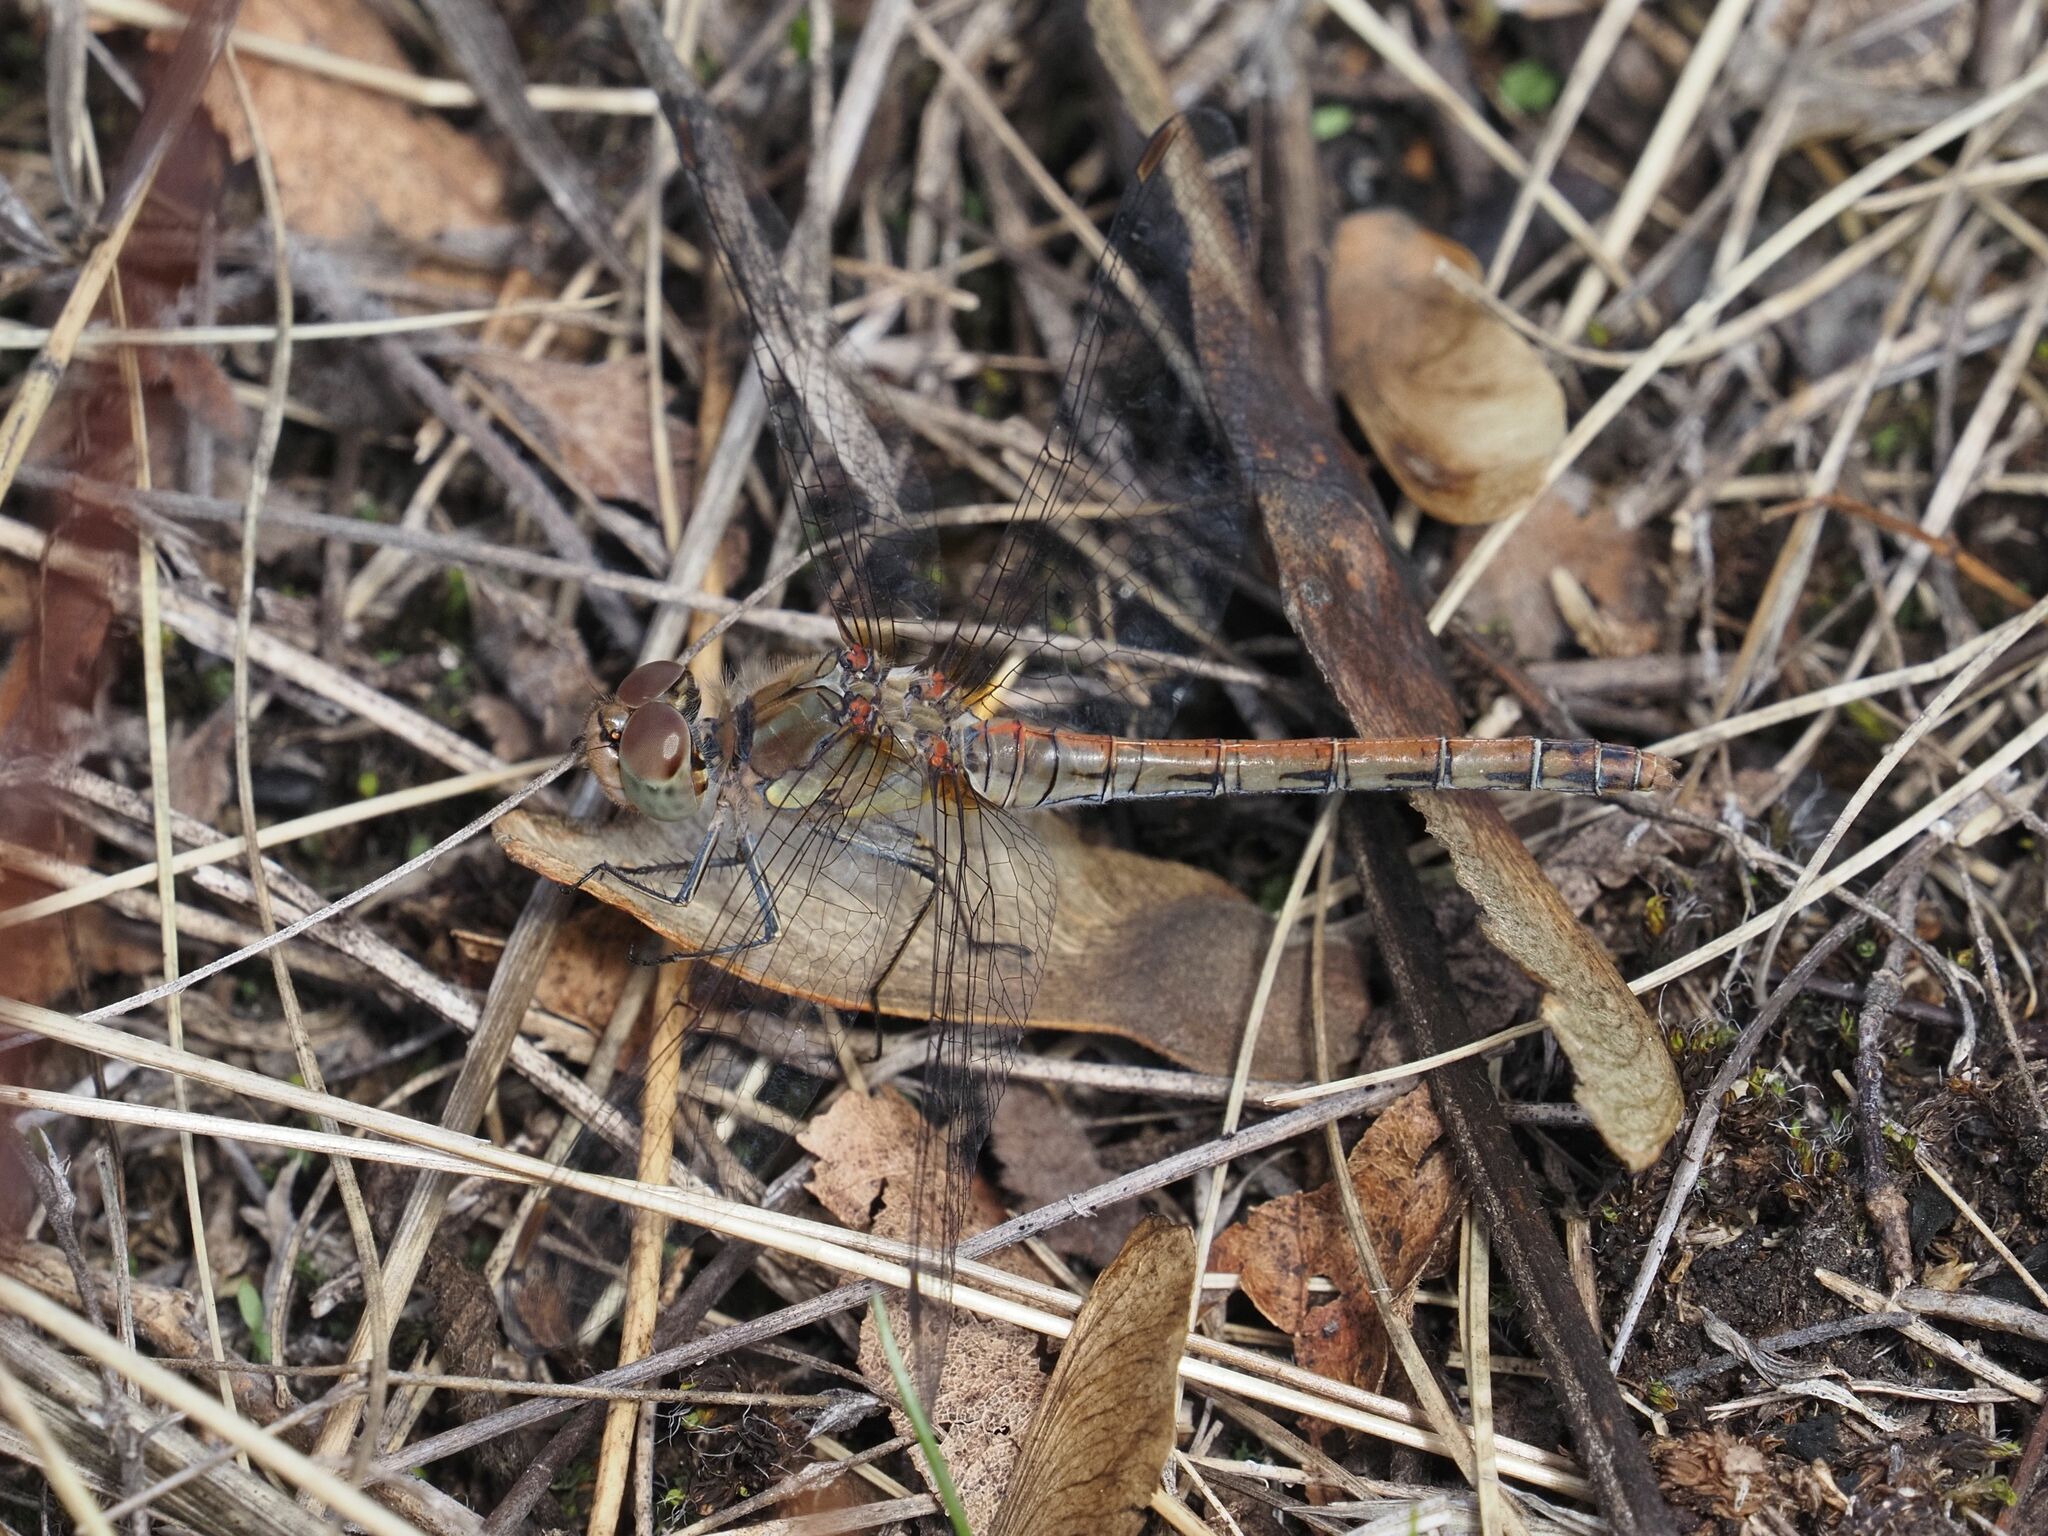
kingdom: Animalia
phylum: Arthropoda
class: Insecta
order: Odonata
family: Libellulidae
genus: Sympetrum
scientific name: Sympetrum striolatum
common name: Common darter
